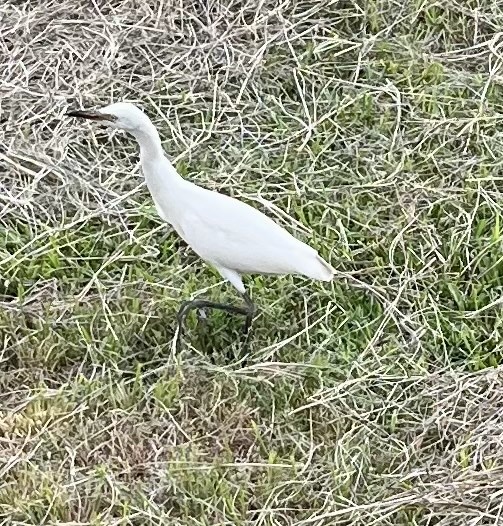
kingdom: Animalia
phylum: Chordata
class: Aves
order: Pelecaniformes
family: Ardeidae
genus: Bubulcus
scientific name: Bubulcus ibis
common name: Cattle egret
